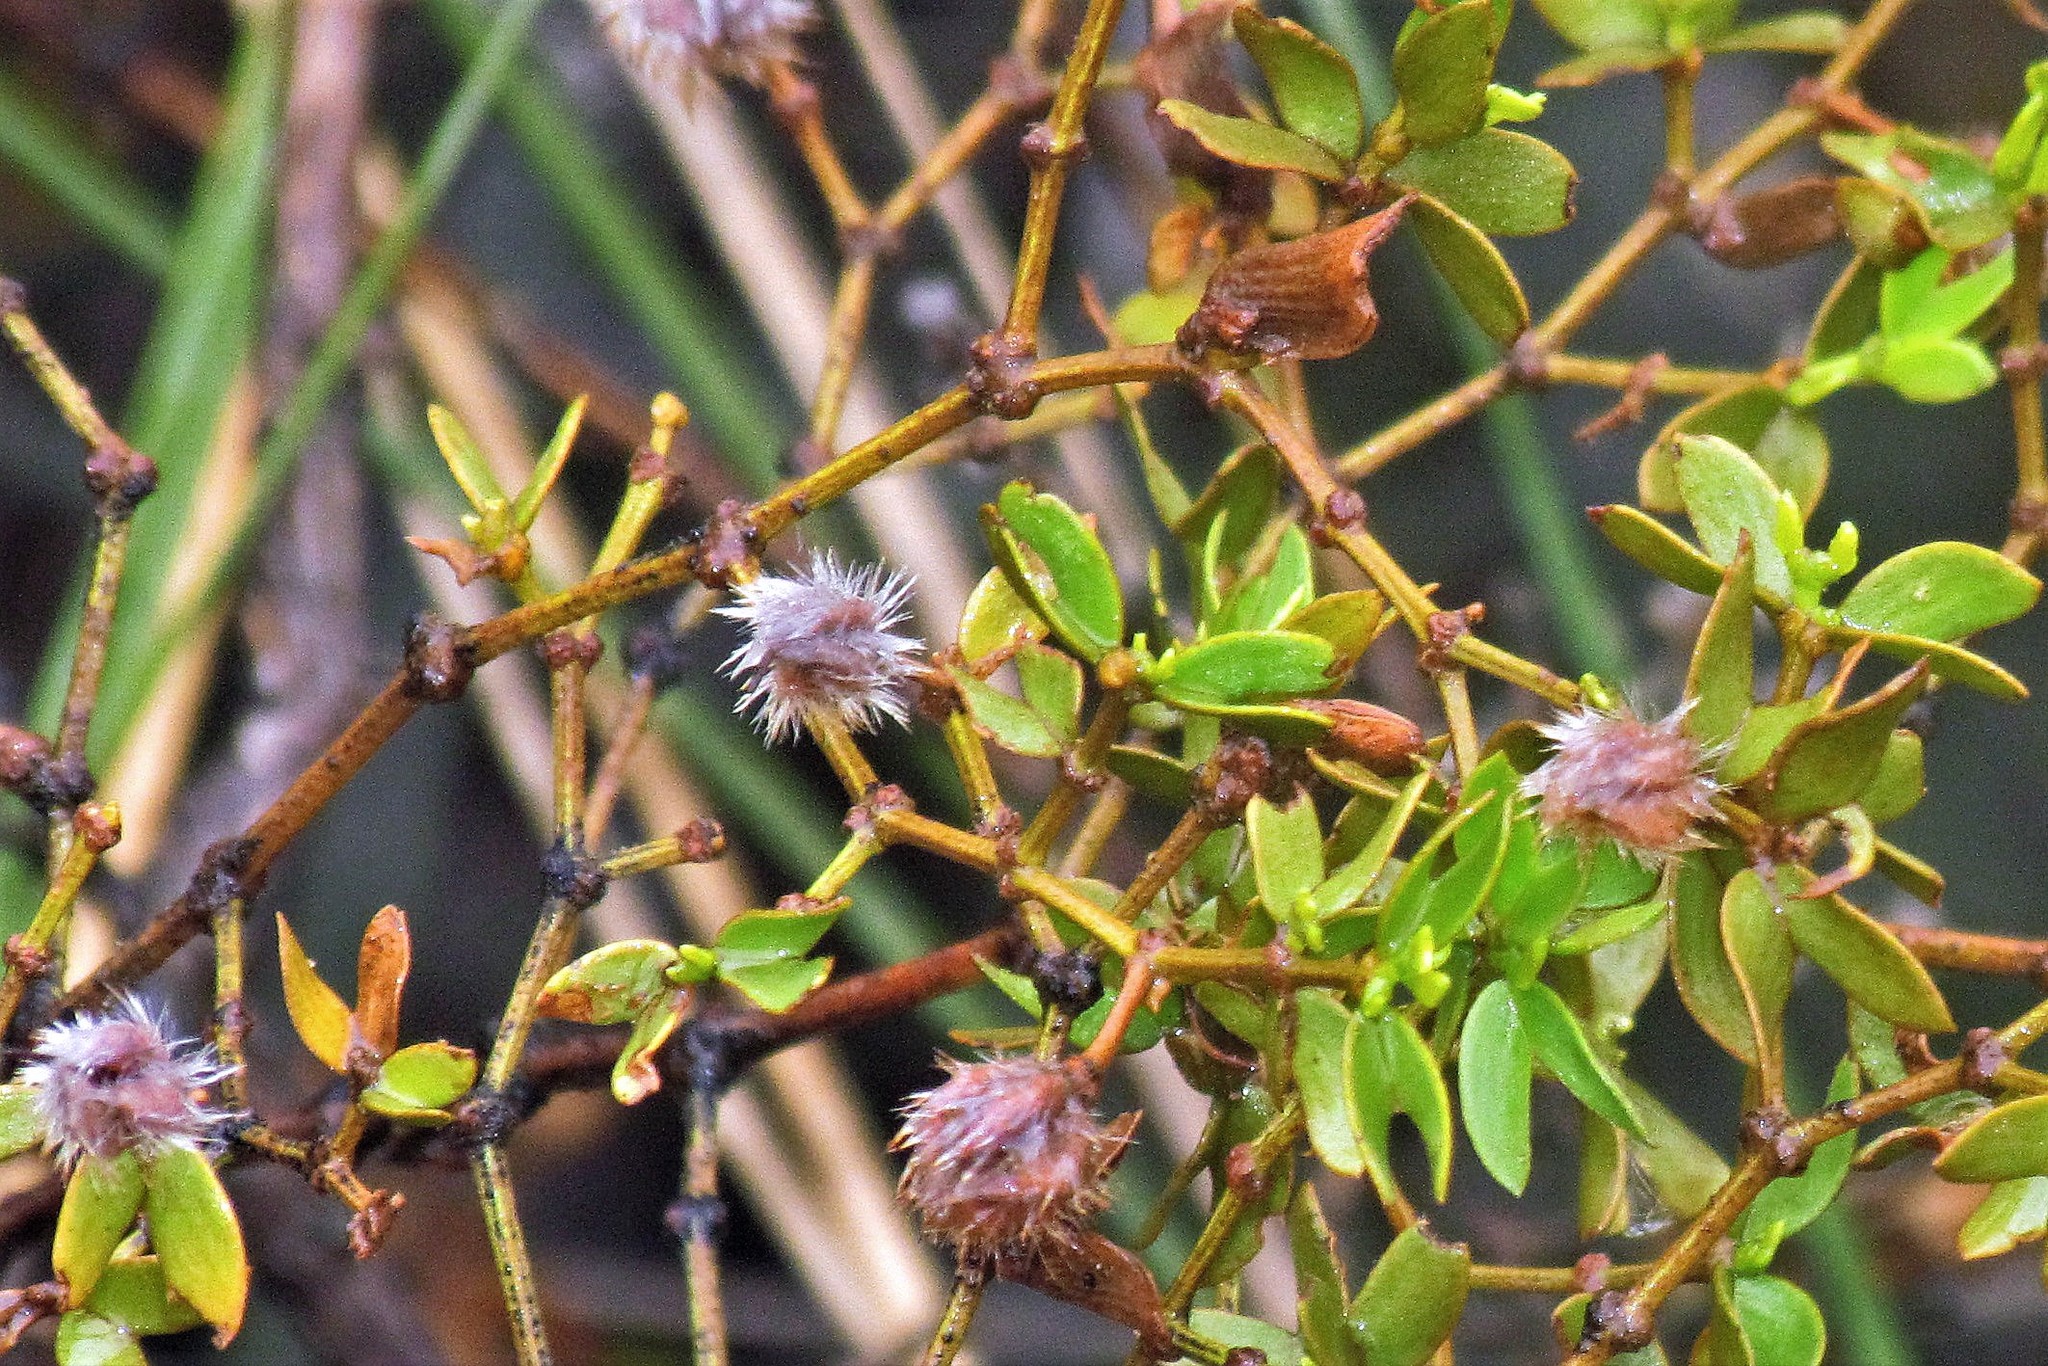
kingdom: Plantae
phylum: Tracheophyta
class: Magnoliopsida
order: Zygophyllales
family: Zygophyllaceae
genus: Larrea
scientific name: Larrea divaricata
